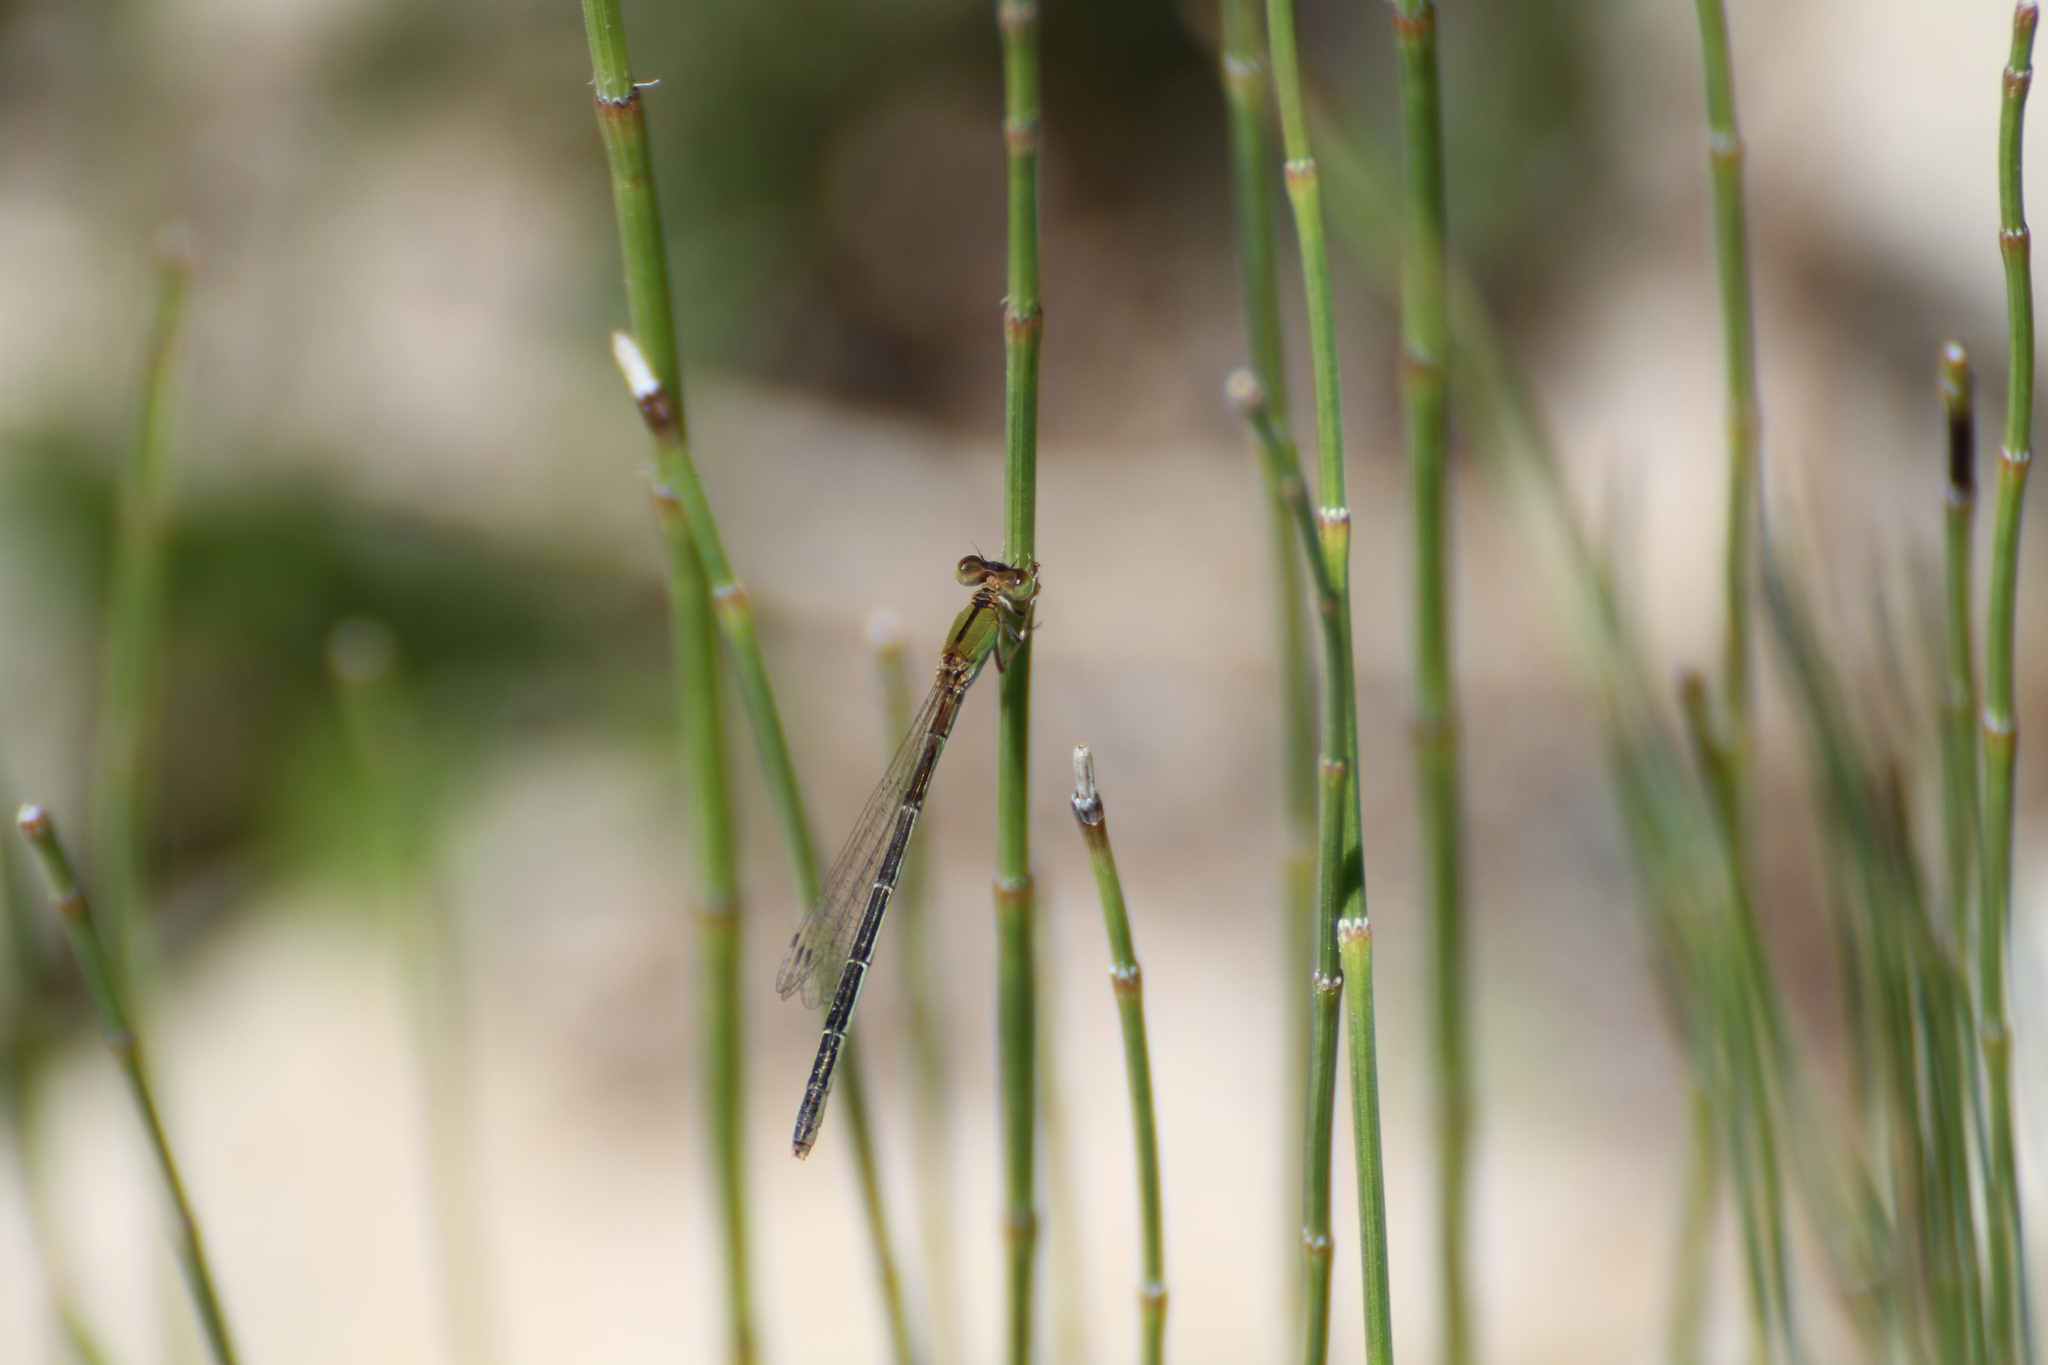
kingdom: Animalia
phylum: Arthropoda
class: Insecta
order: Odonata
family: Coenagrionidae
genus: Ischnura
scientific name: Ischnura pumilio
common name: Scarce blue-tailed damselfly
